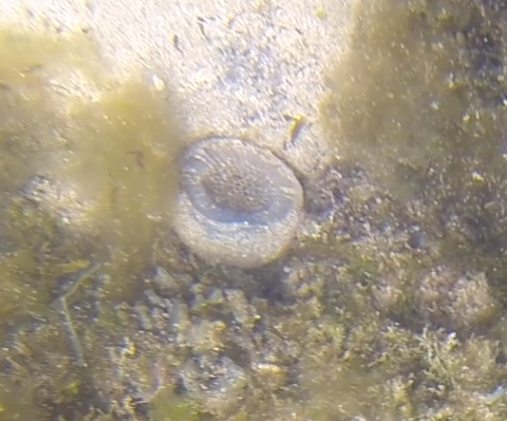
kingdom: Animalia
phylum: Mollusca
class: Gastropoda
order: Littorinimorpha
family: Cymatiidae
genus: Cabestana
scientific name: Cabestana spengleri
